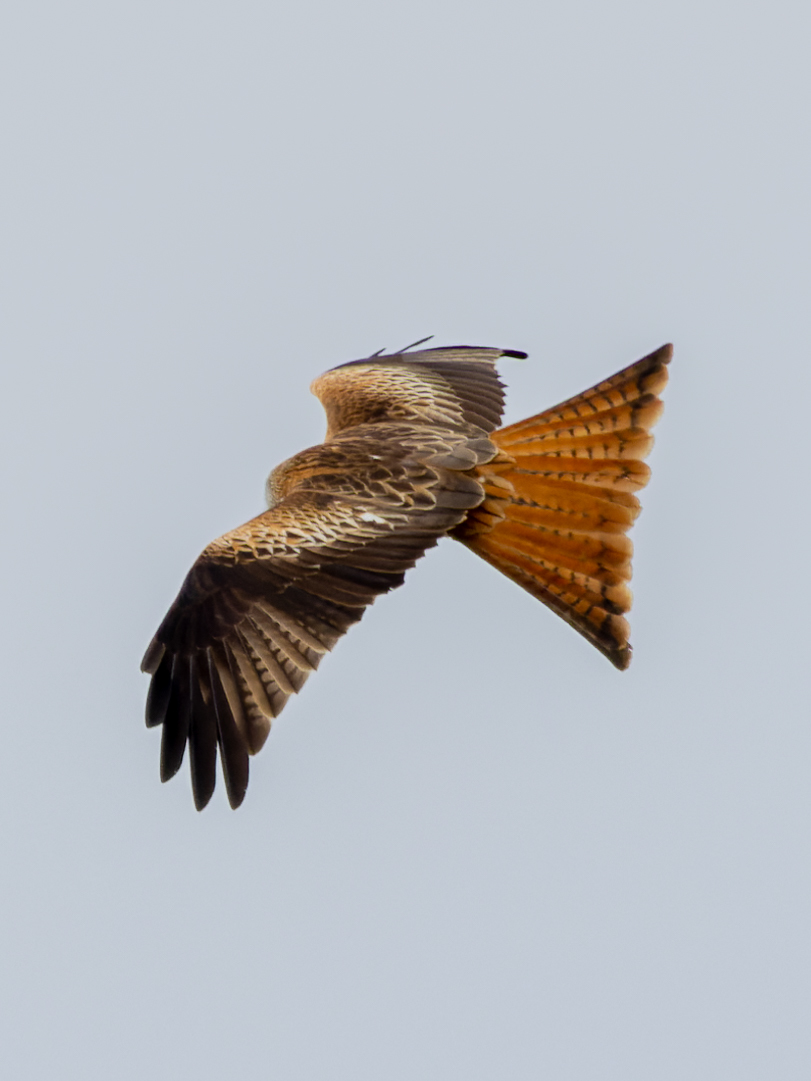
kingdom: Animalia
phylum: Chordata
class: Aves
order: Accipitriformes
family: Accipitridae
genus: Milvus
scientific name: Milvus milvus
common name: Red kite
